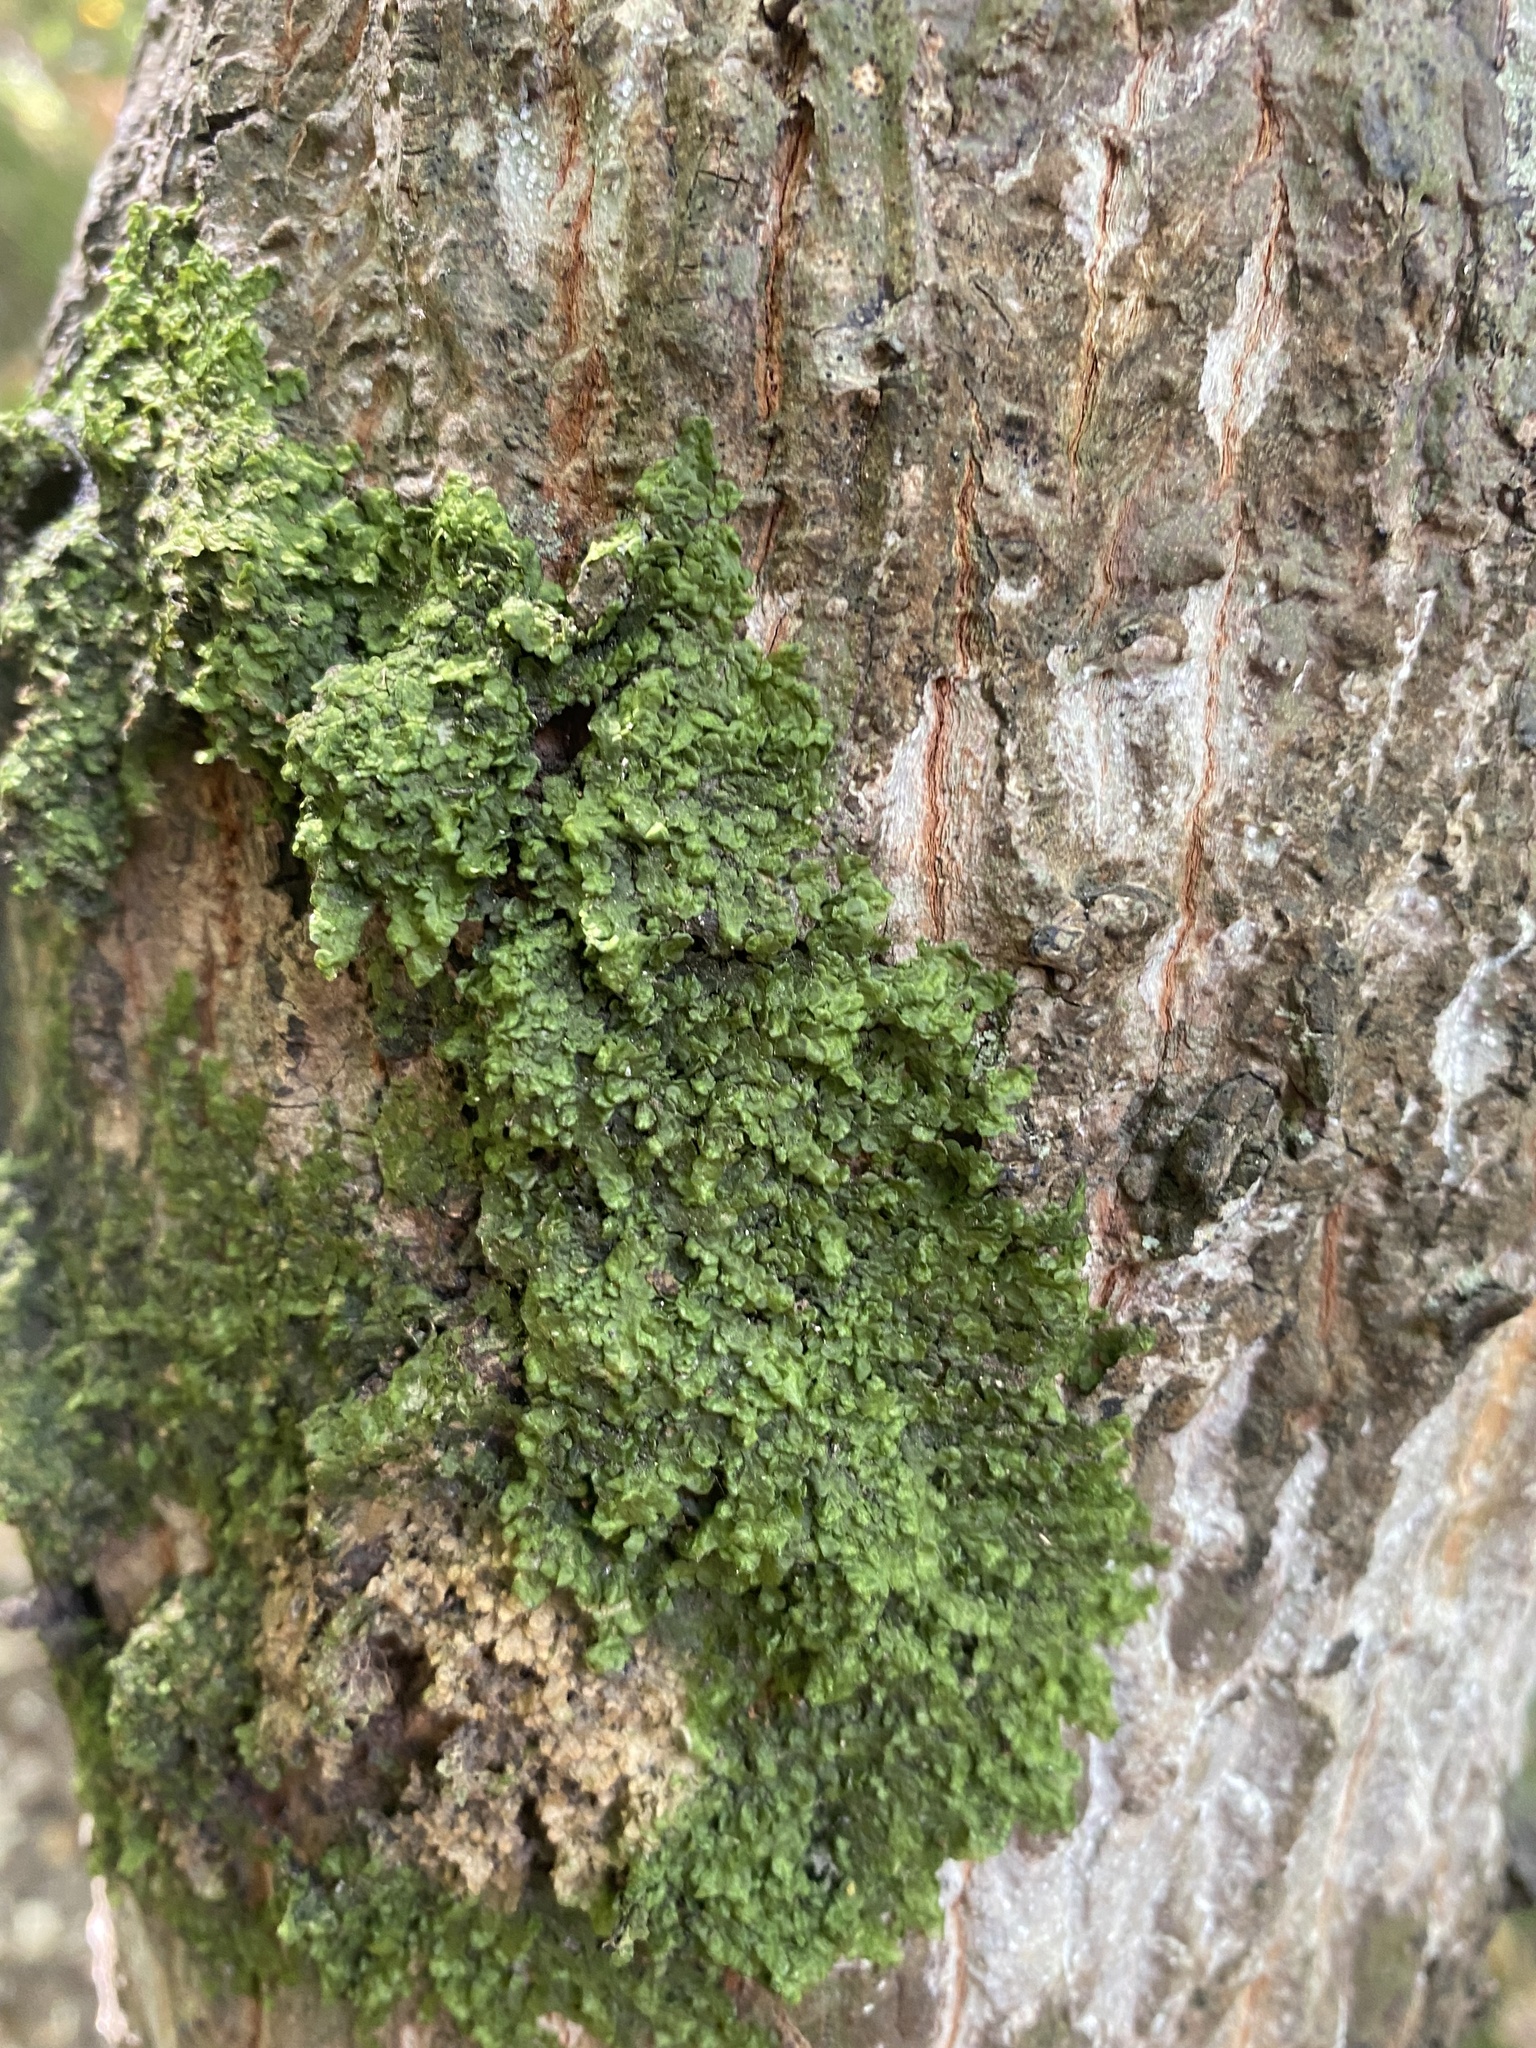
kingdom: Plantae
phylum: Marchantiophyta
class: Jungermanniopsida
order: Porellales
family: Radulaceae
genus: Radula
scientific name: Radula complanata
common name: Flat-leaved scalewort
